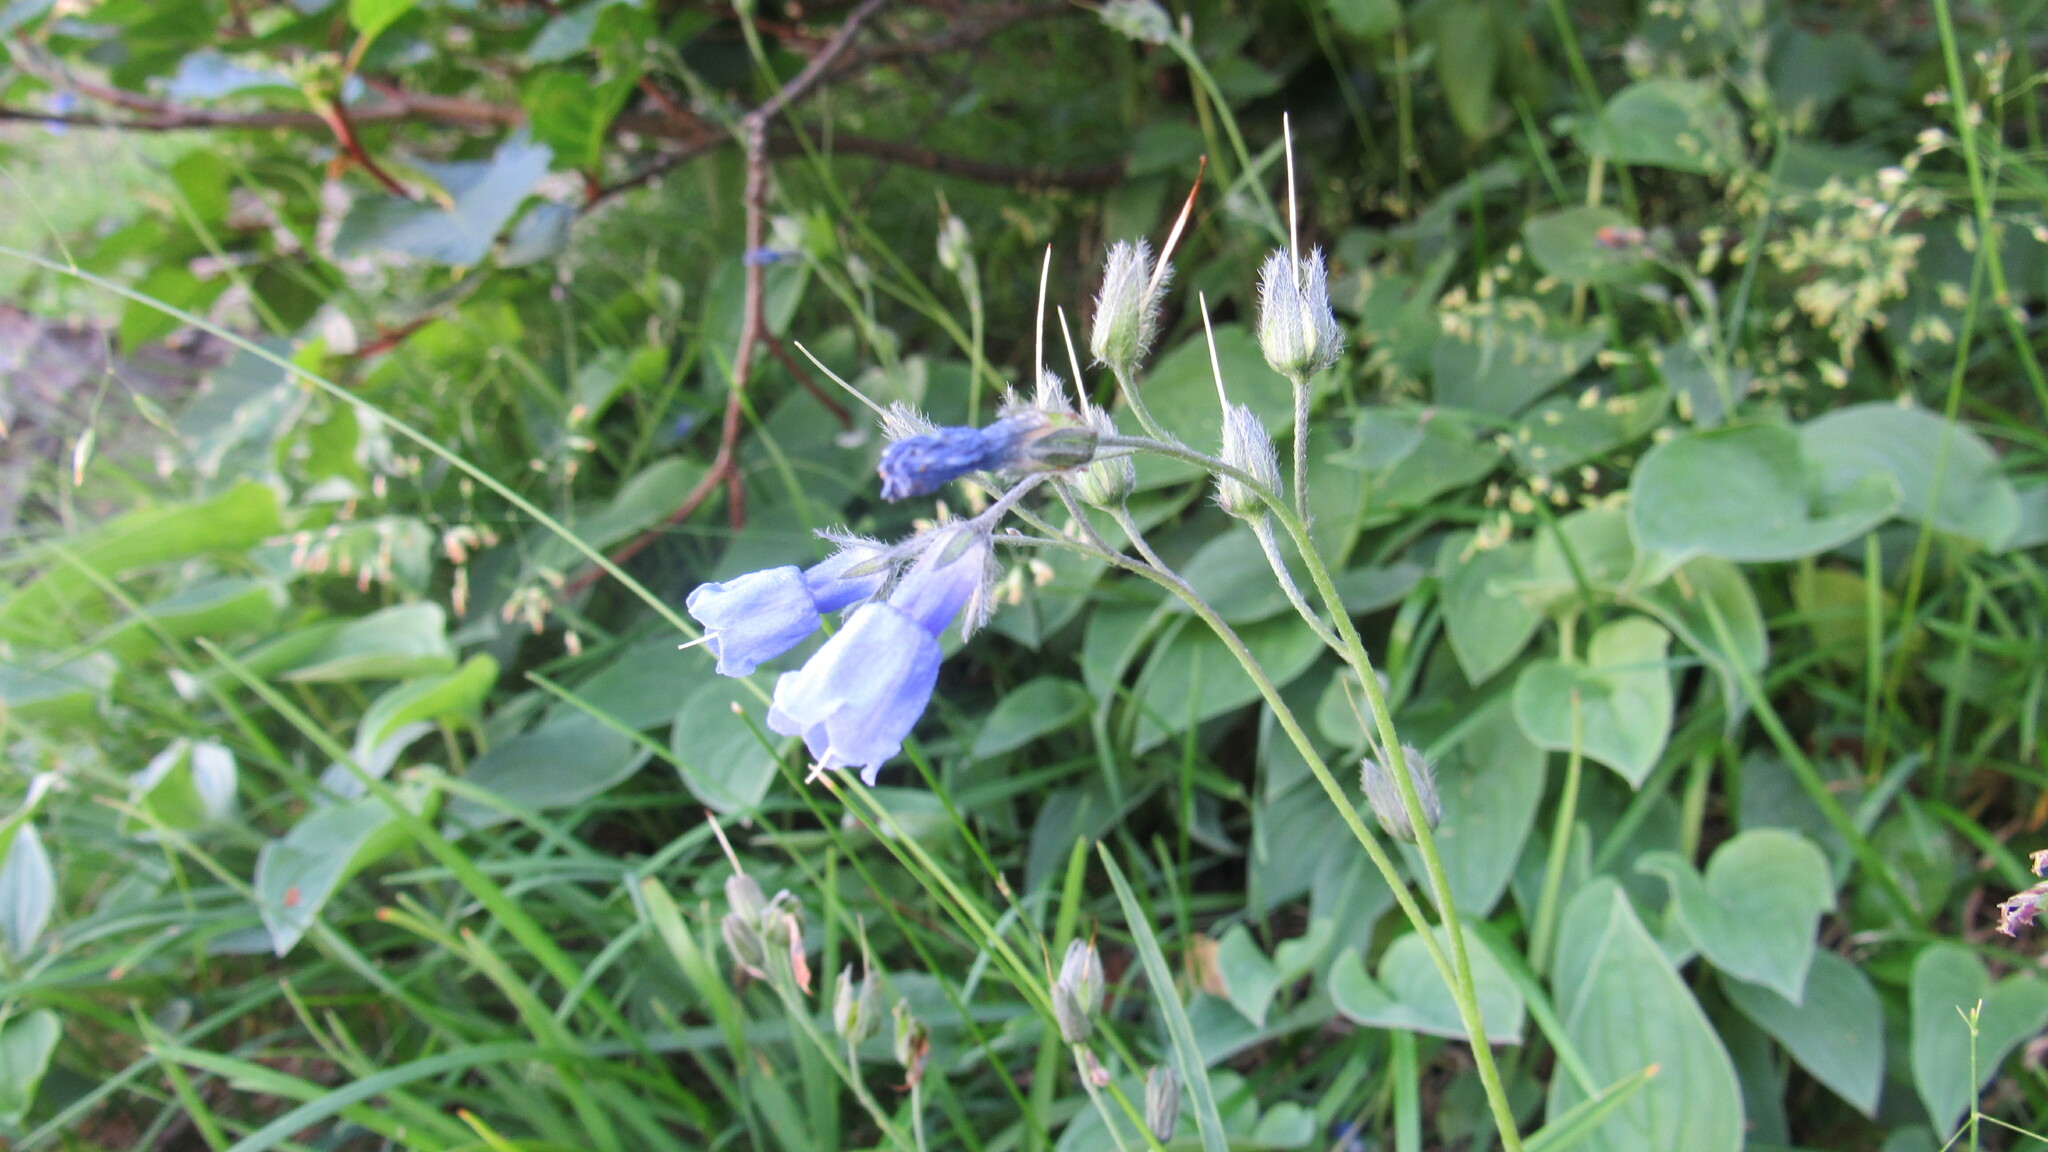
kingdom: Plantae
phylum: Tracheophyta
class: Magnoliopsida
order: Boraginales
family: Boraginaceae
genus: Mertensia
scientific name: Mertensia kamczatica
